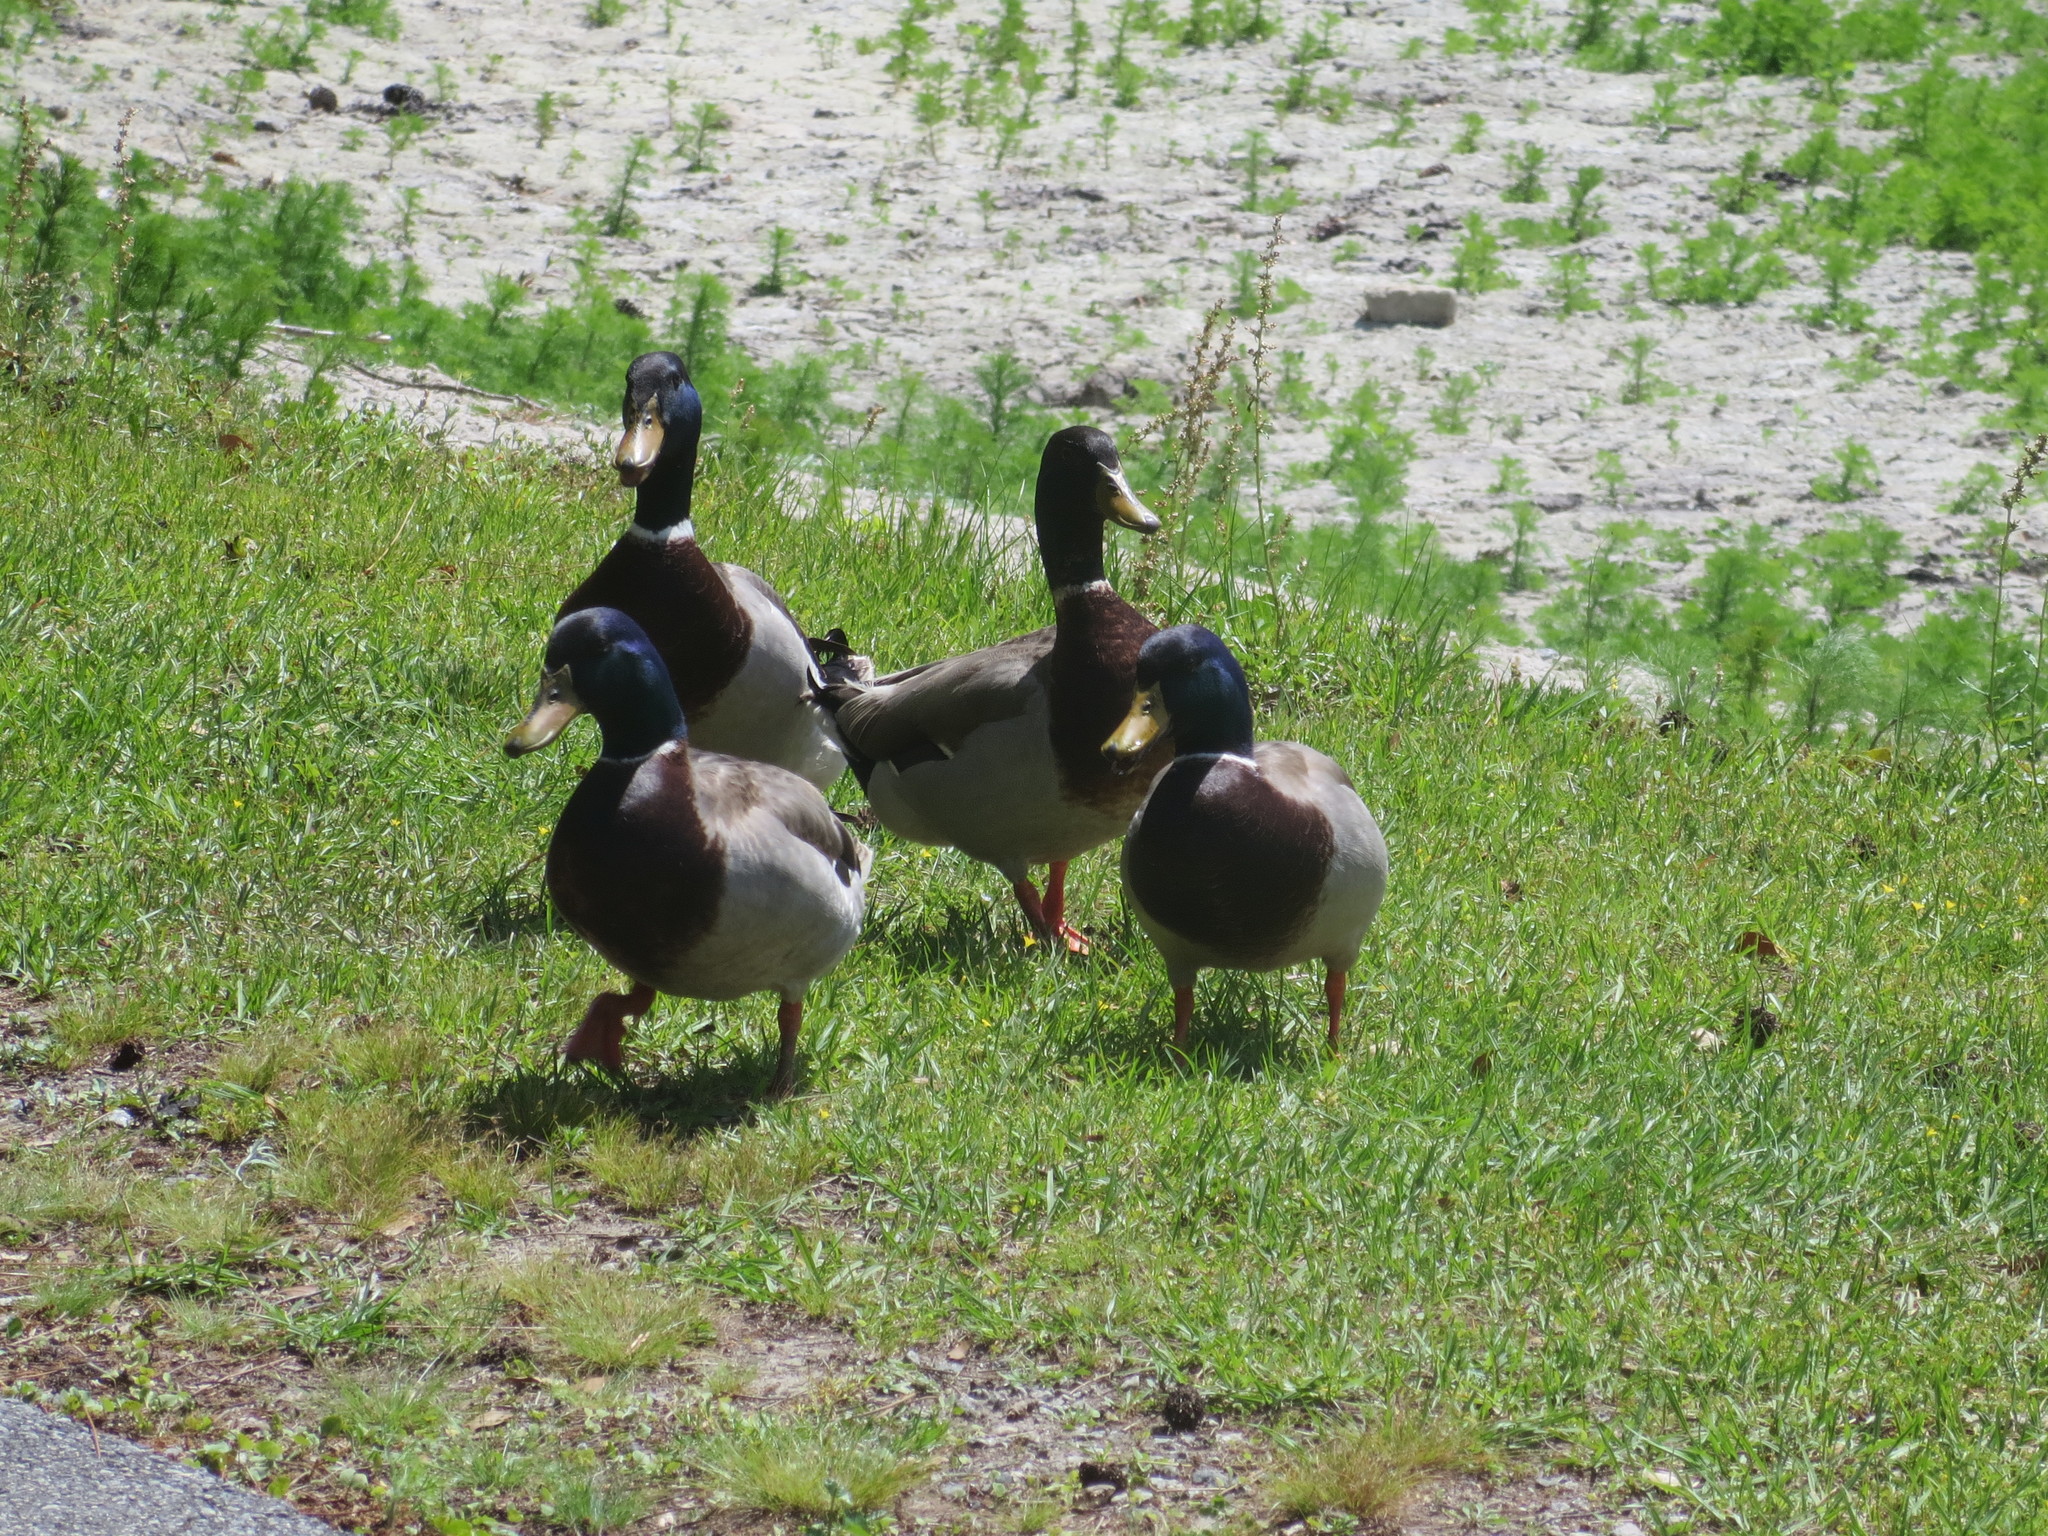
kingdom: Animalia
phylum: Chordata
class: Aves
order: Anseriformes
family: Anatidae
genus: Anas
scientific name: Anas platyrhynchos
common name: Mallard
